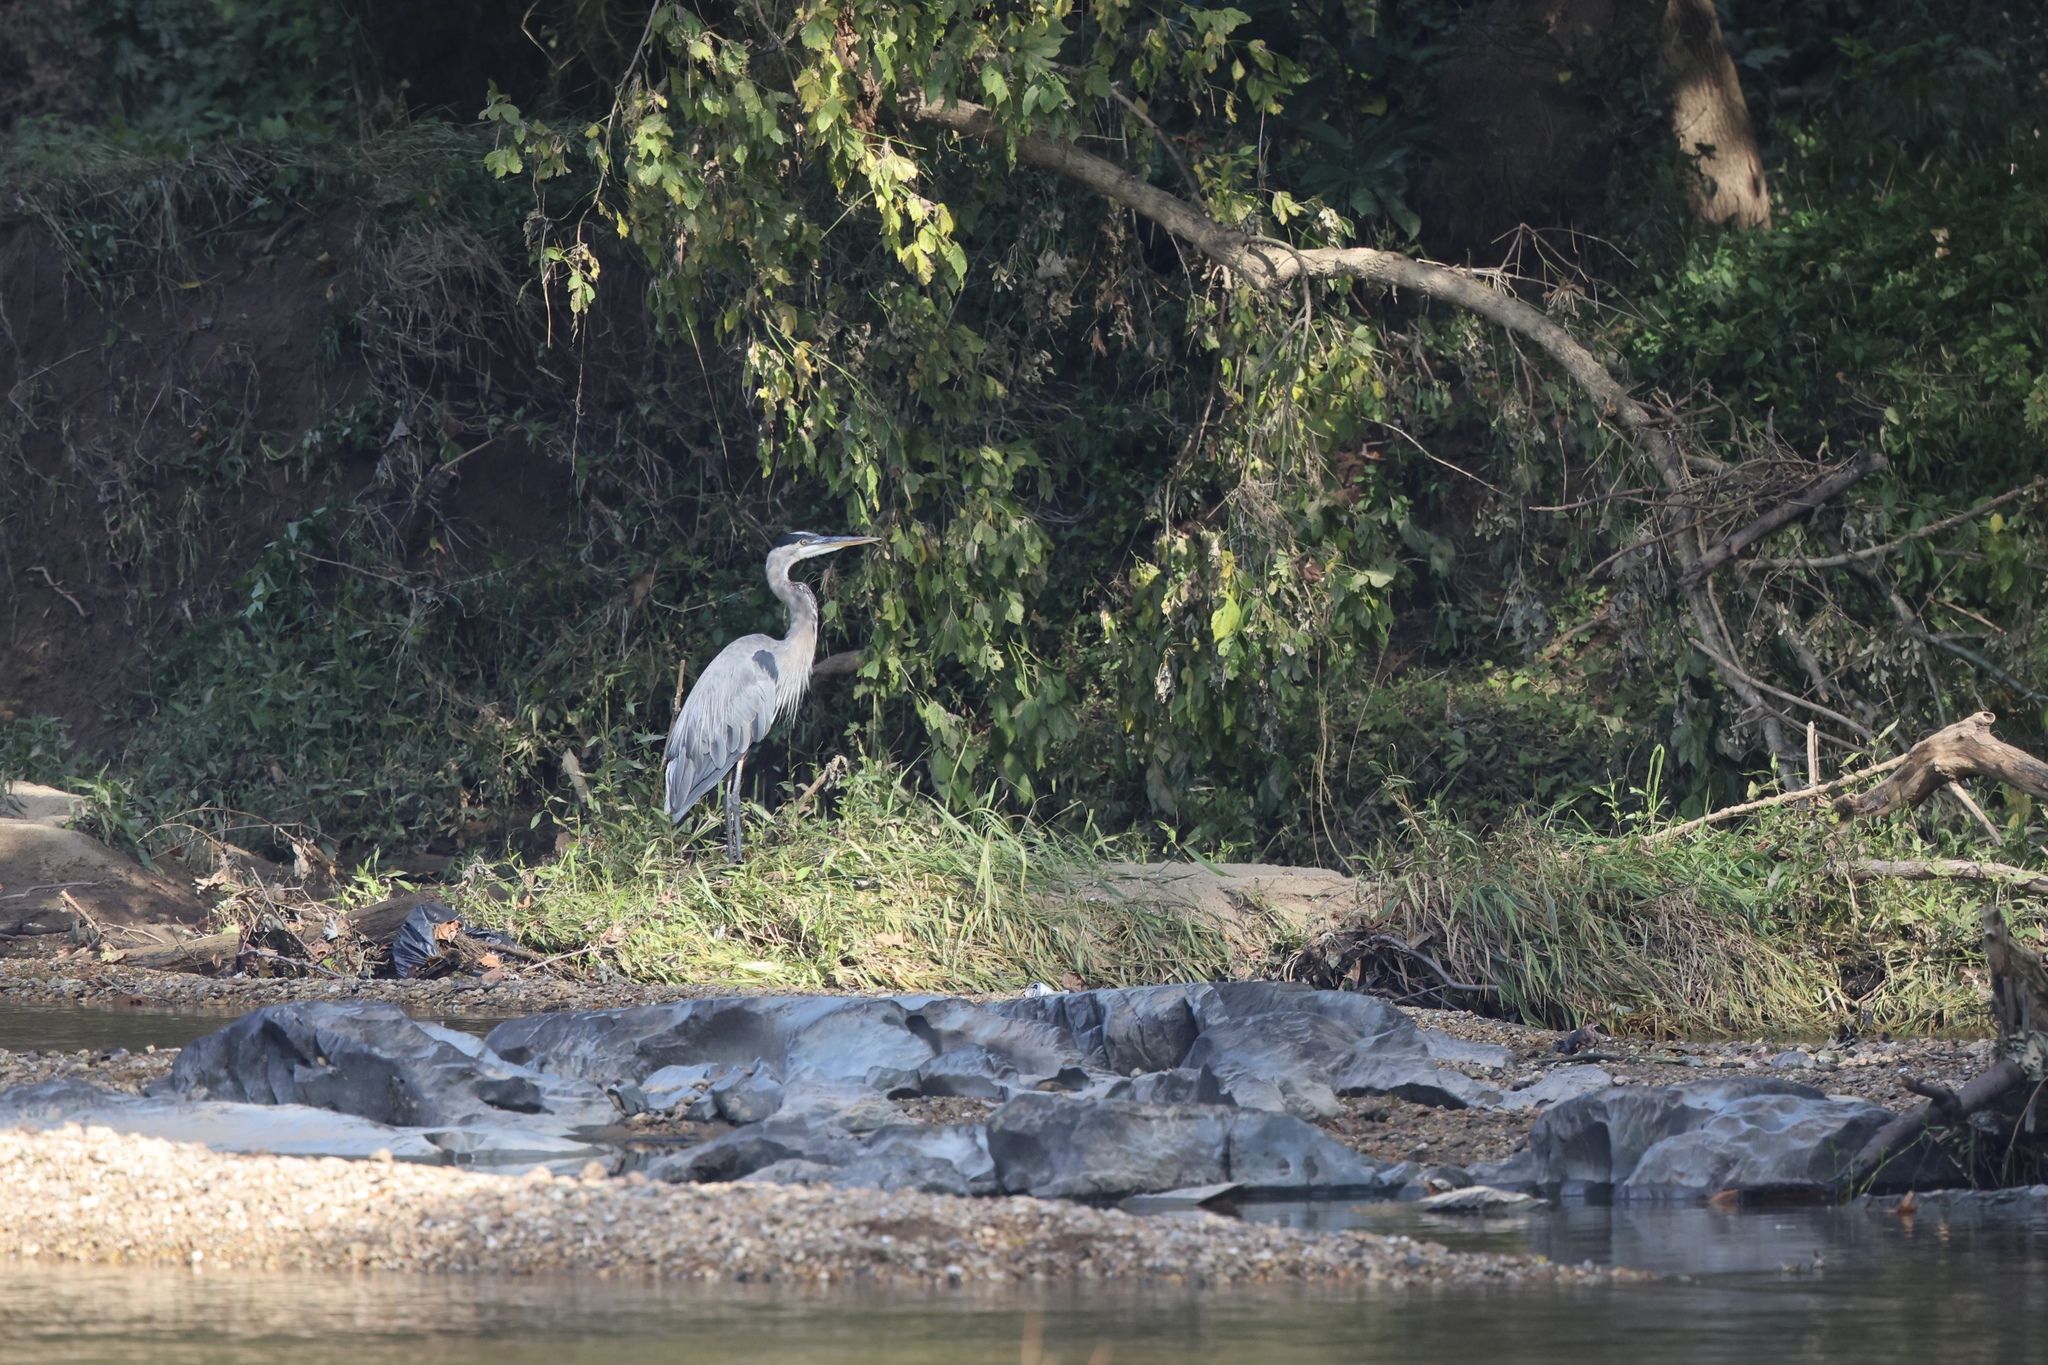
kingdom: Animalia
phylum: Chordata
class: Aves
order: Pelecaniformes
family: Ardeidae
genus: Ardea
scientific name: Ardea herodias
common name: Great blue heron
